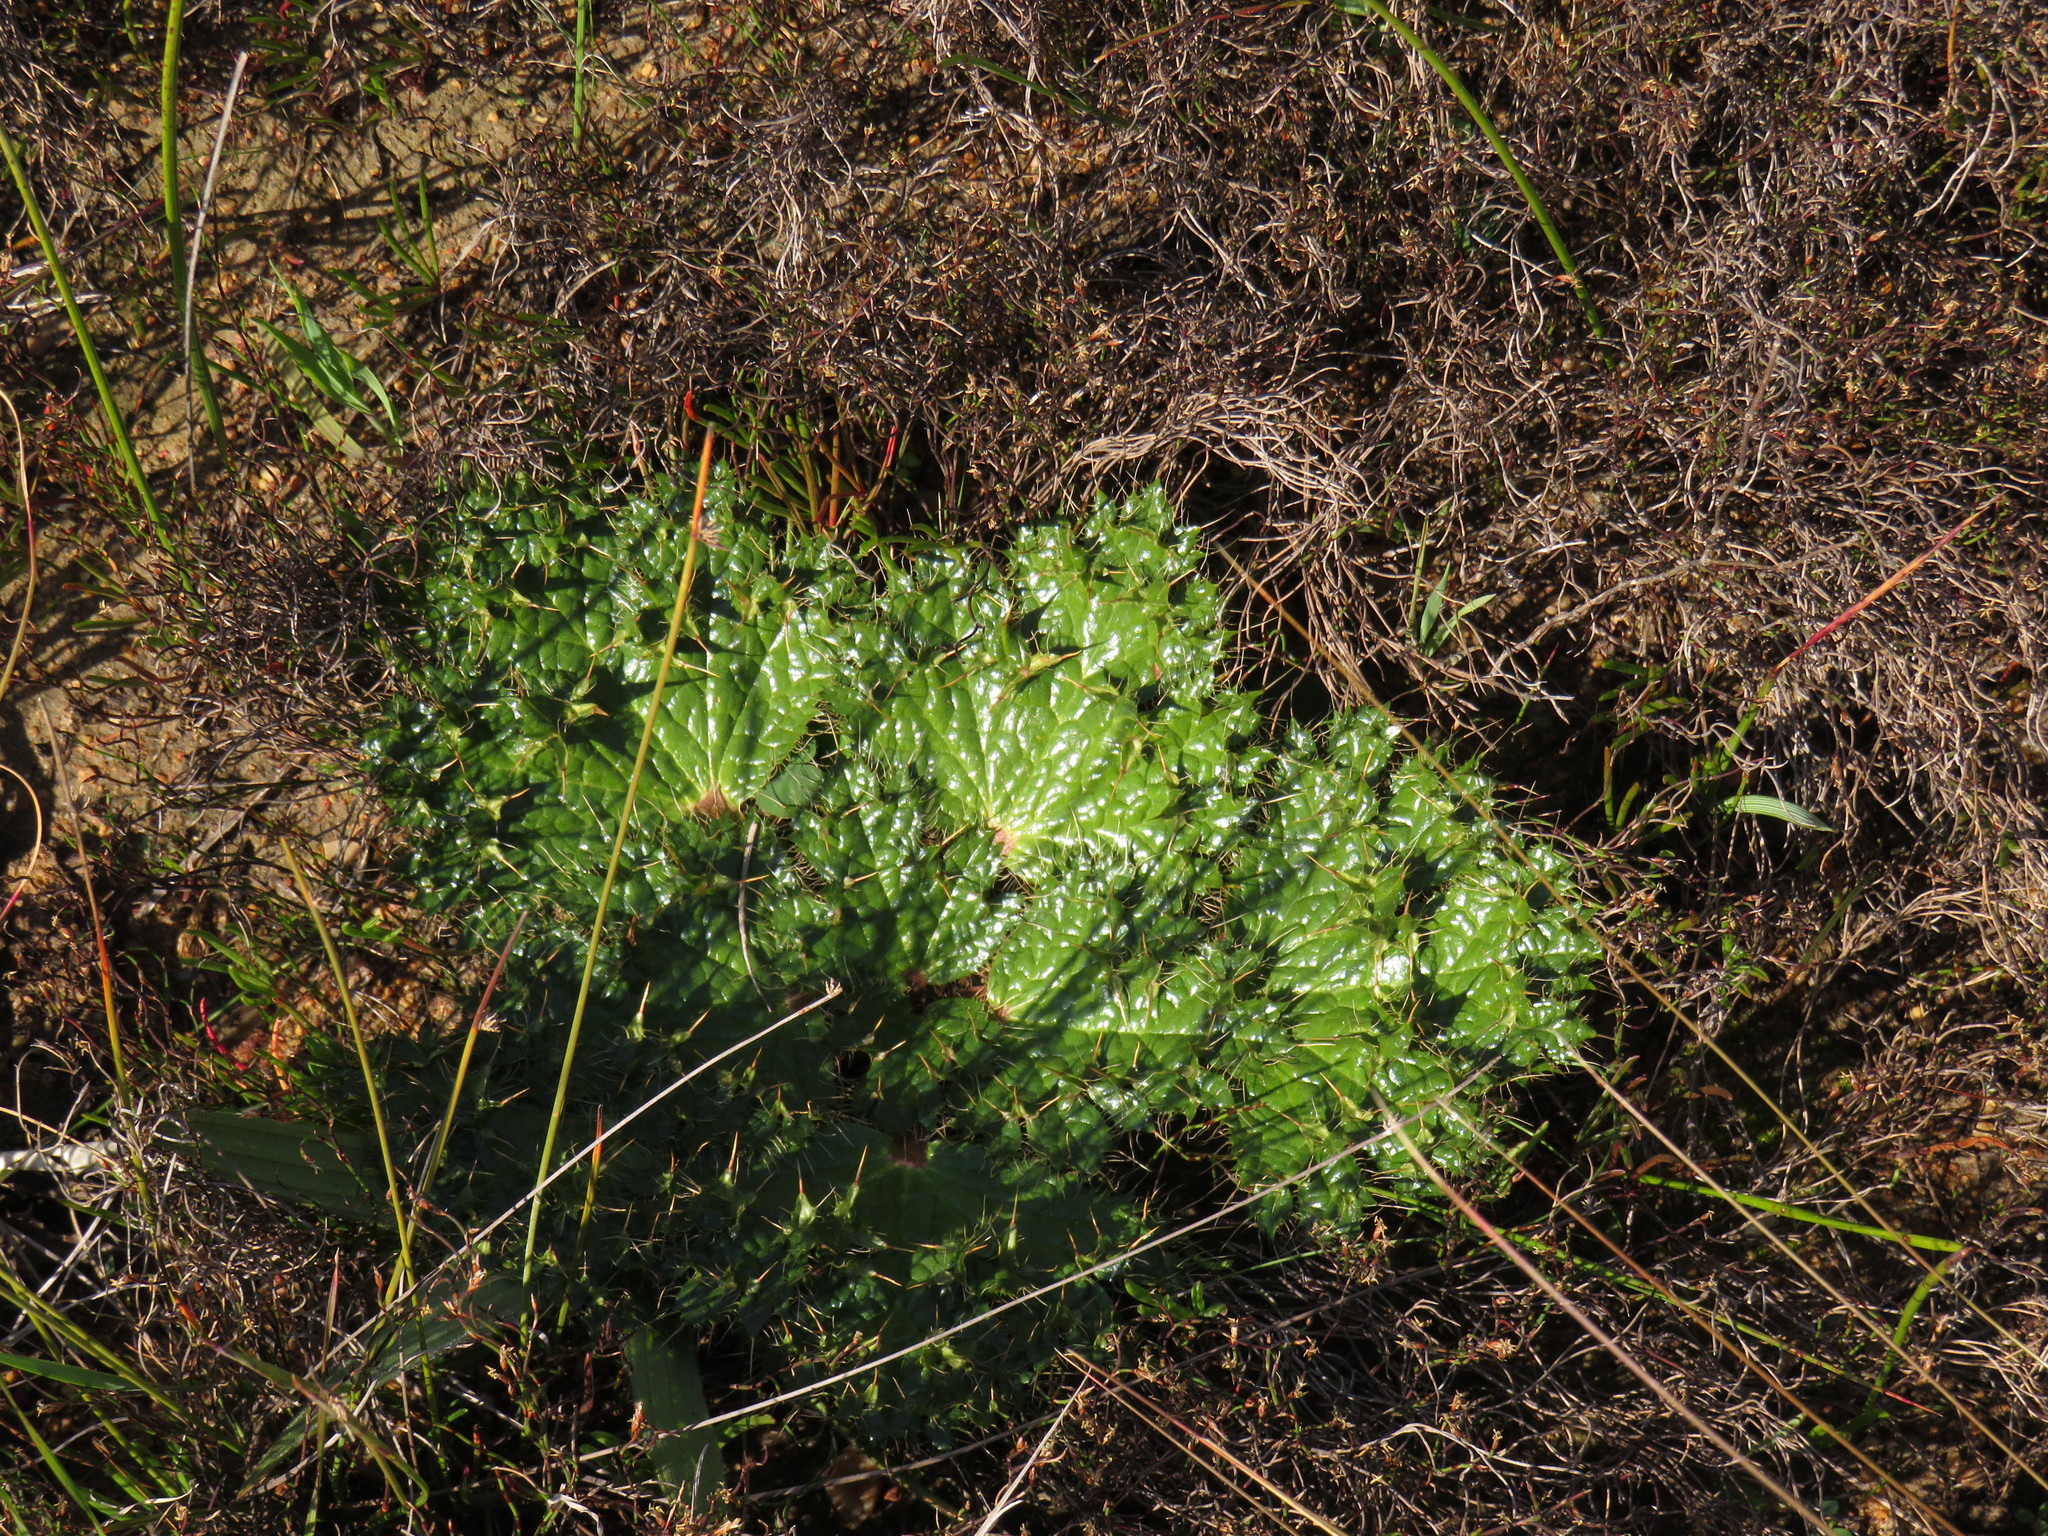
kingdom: Plantae
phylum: Tracheophyta
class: Magnoliopsida
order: Apiales
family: Apiaceae
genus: Arctopus
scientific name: Arctopus monacanthus
